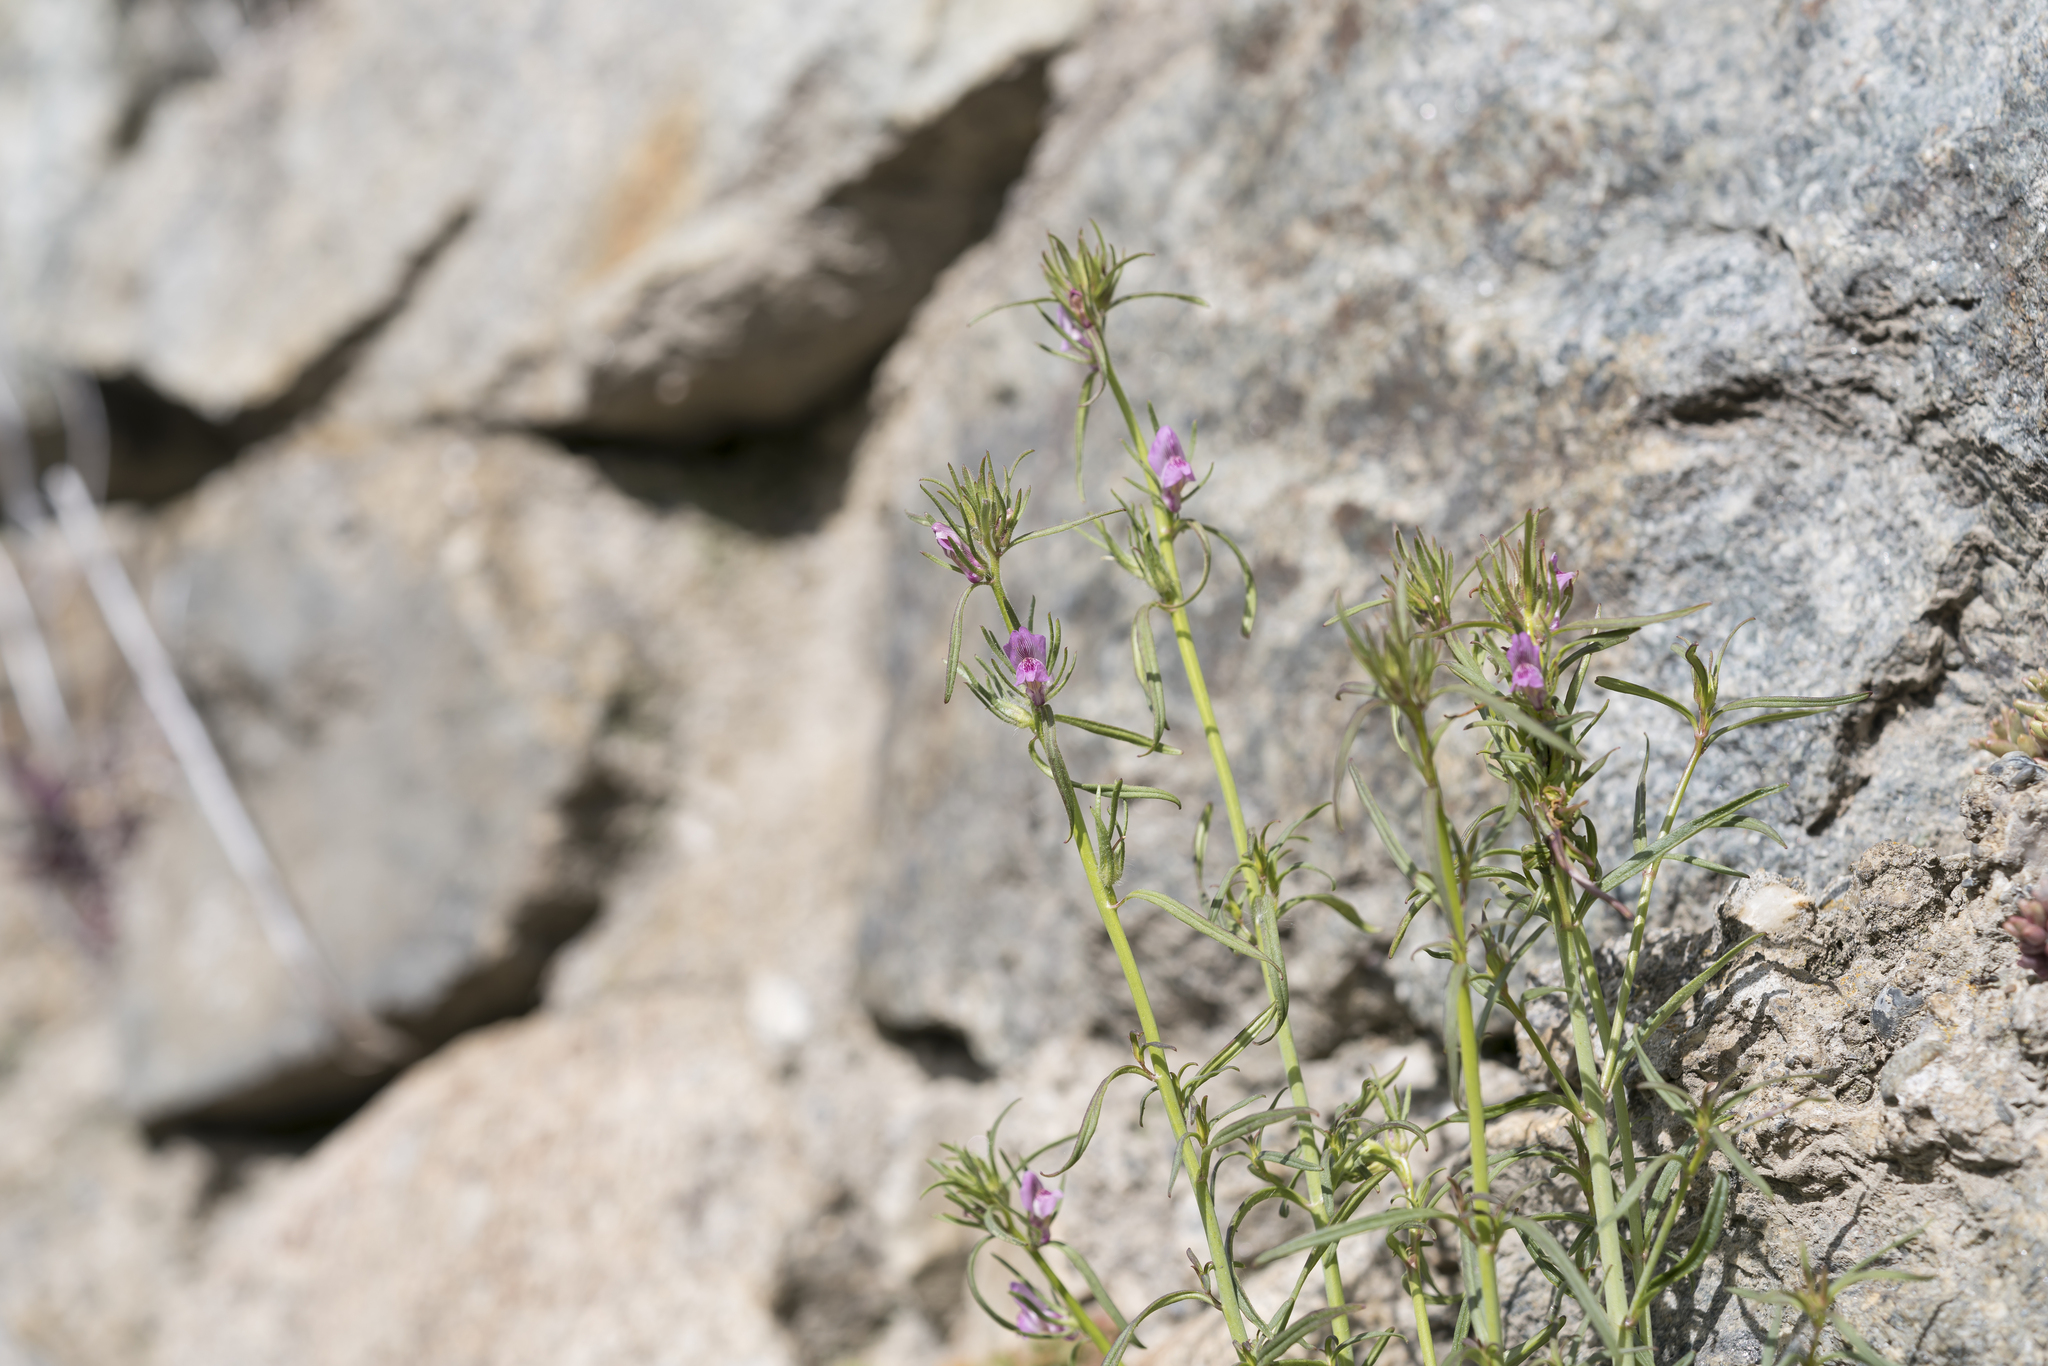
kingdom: Plantae
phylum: Tracheophyta
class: Magnoliopsida
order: Lamiales
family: Plantaginaceae
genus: Misopates
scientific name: Misopates orontium
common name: Weasel's-snout
